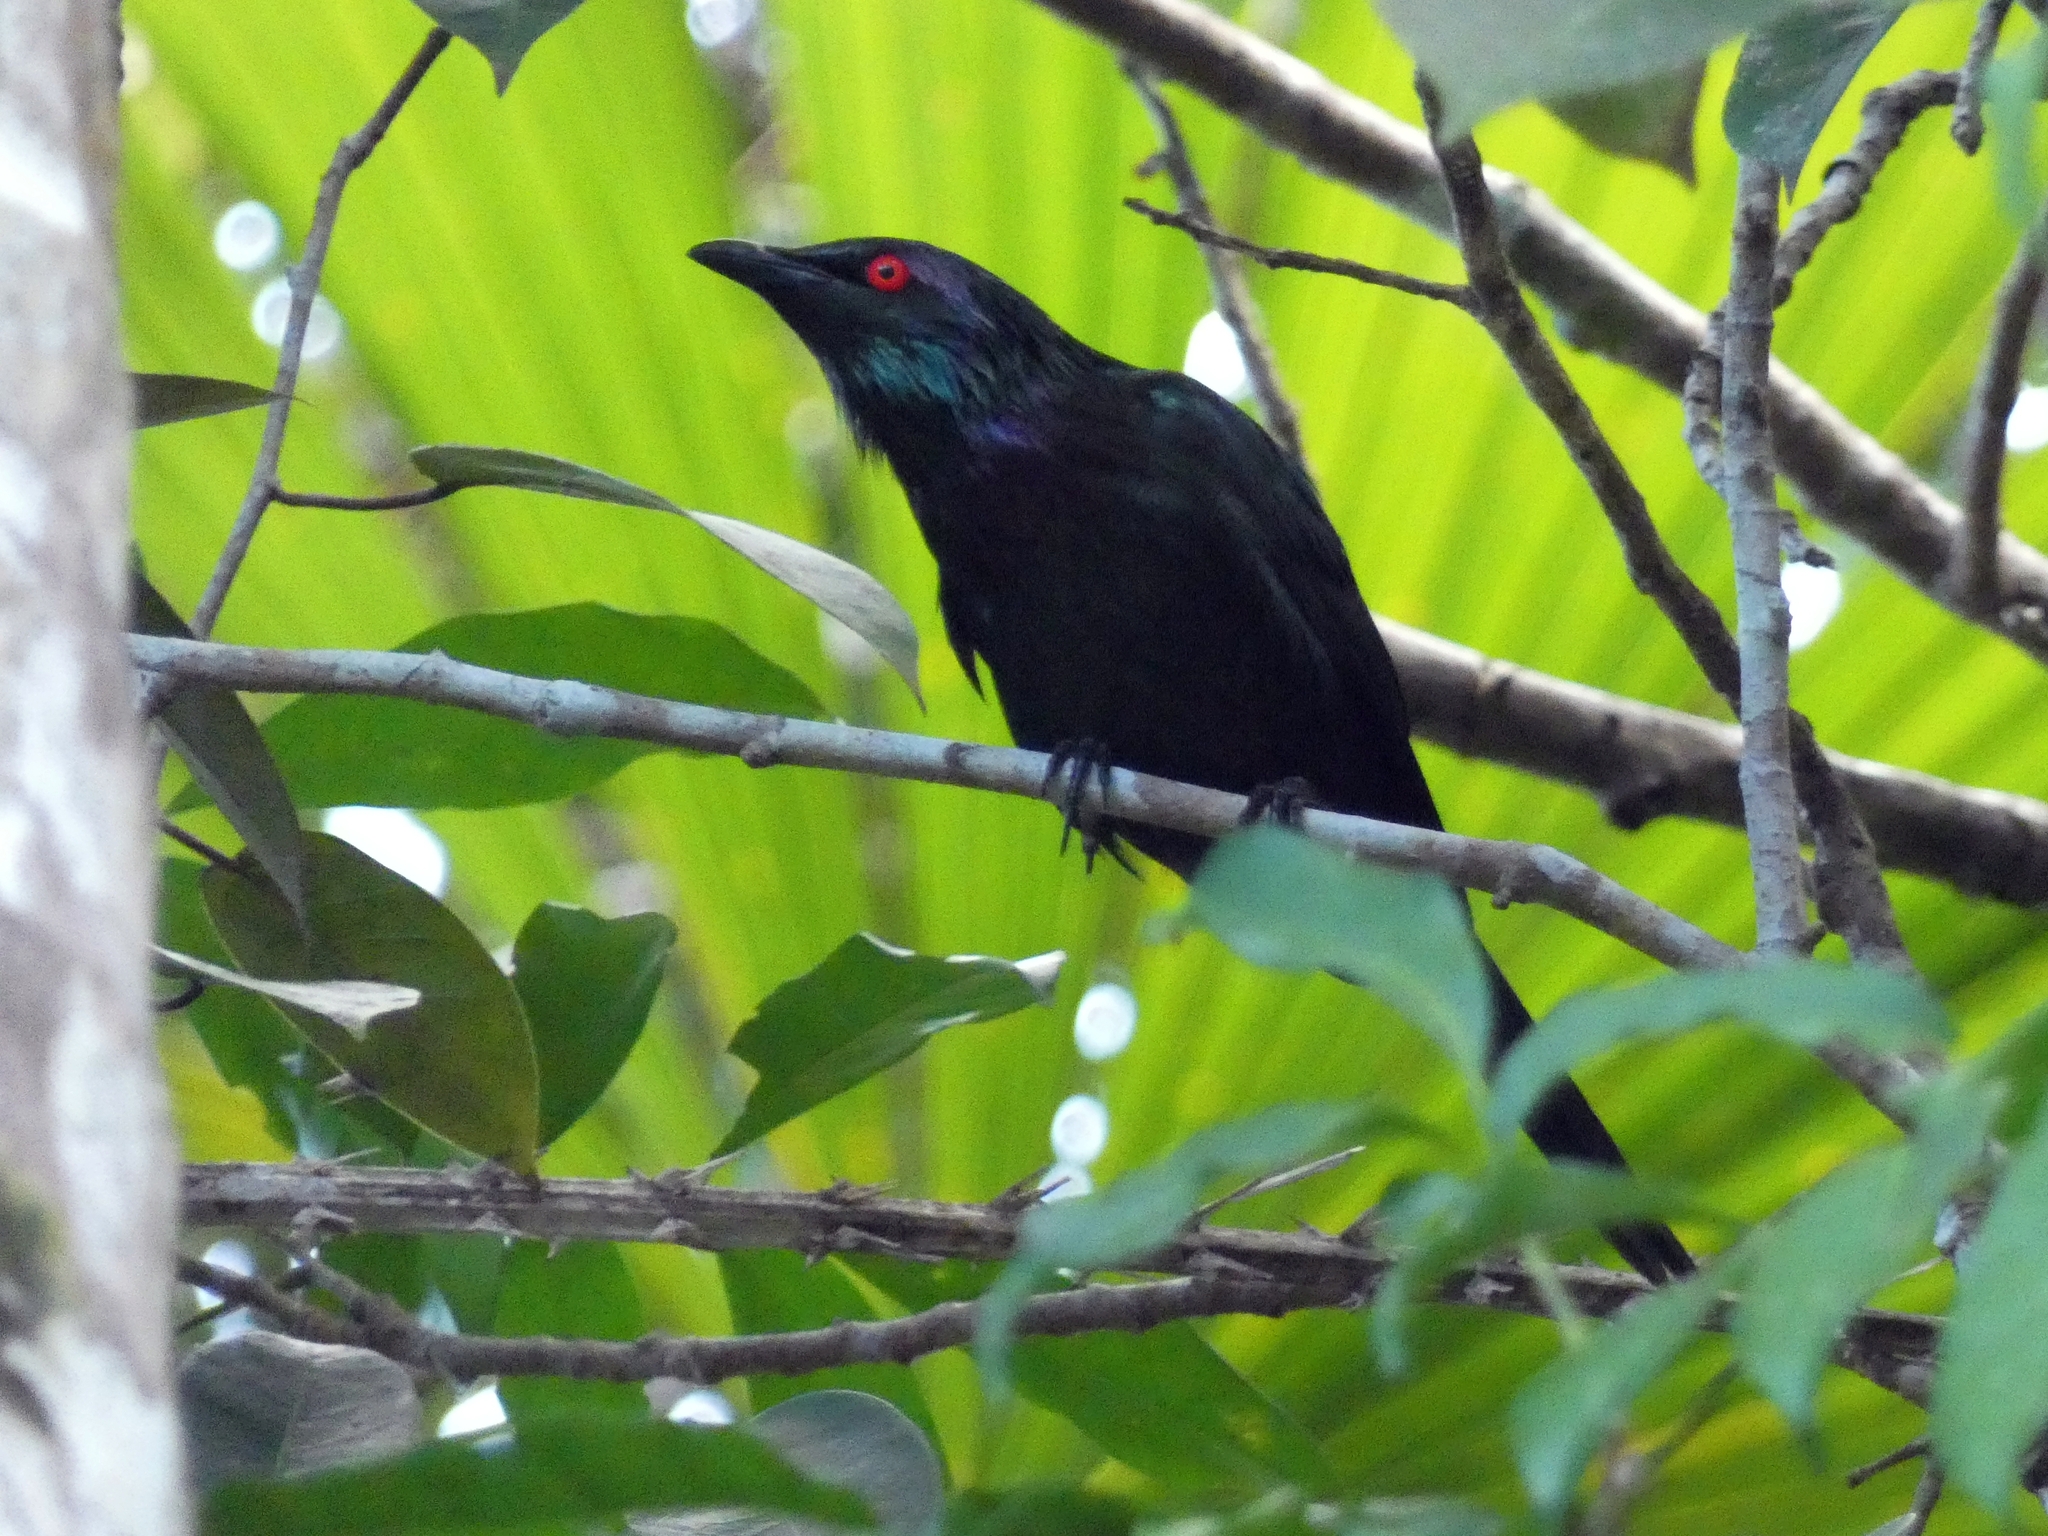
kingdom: Animalia
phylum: Chordata
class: Aves
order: Passeriformes
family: Sturnidae
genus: Aplonis
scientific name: Aplonis metallica
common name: Metallic starling
